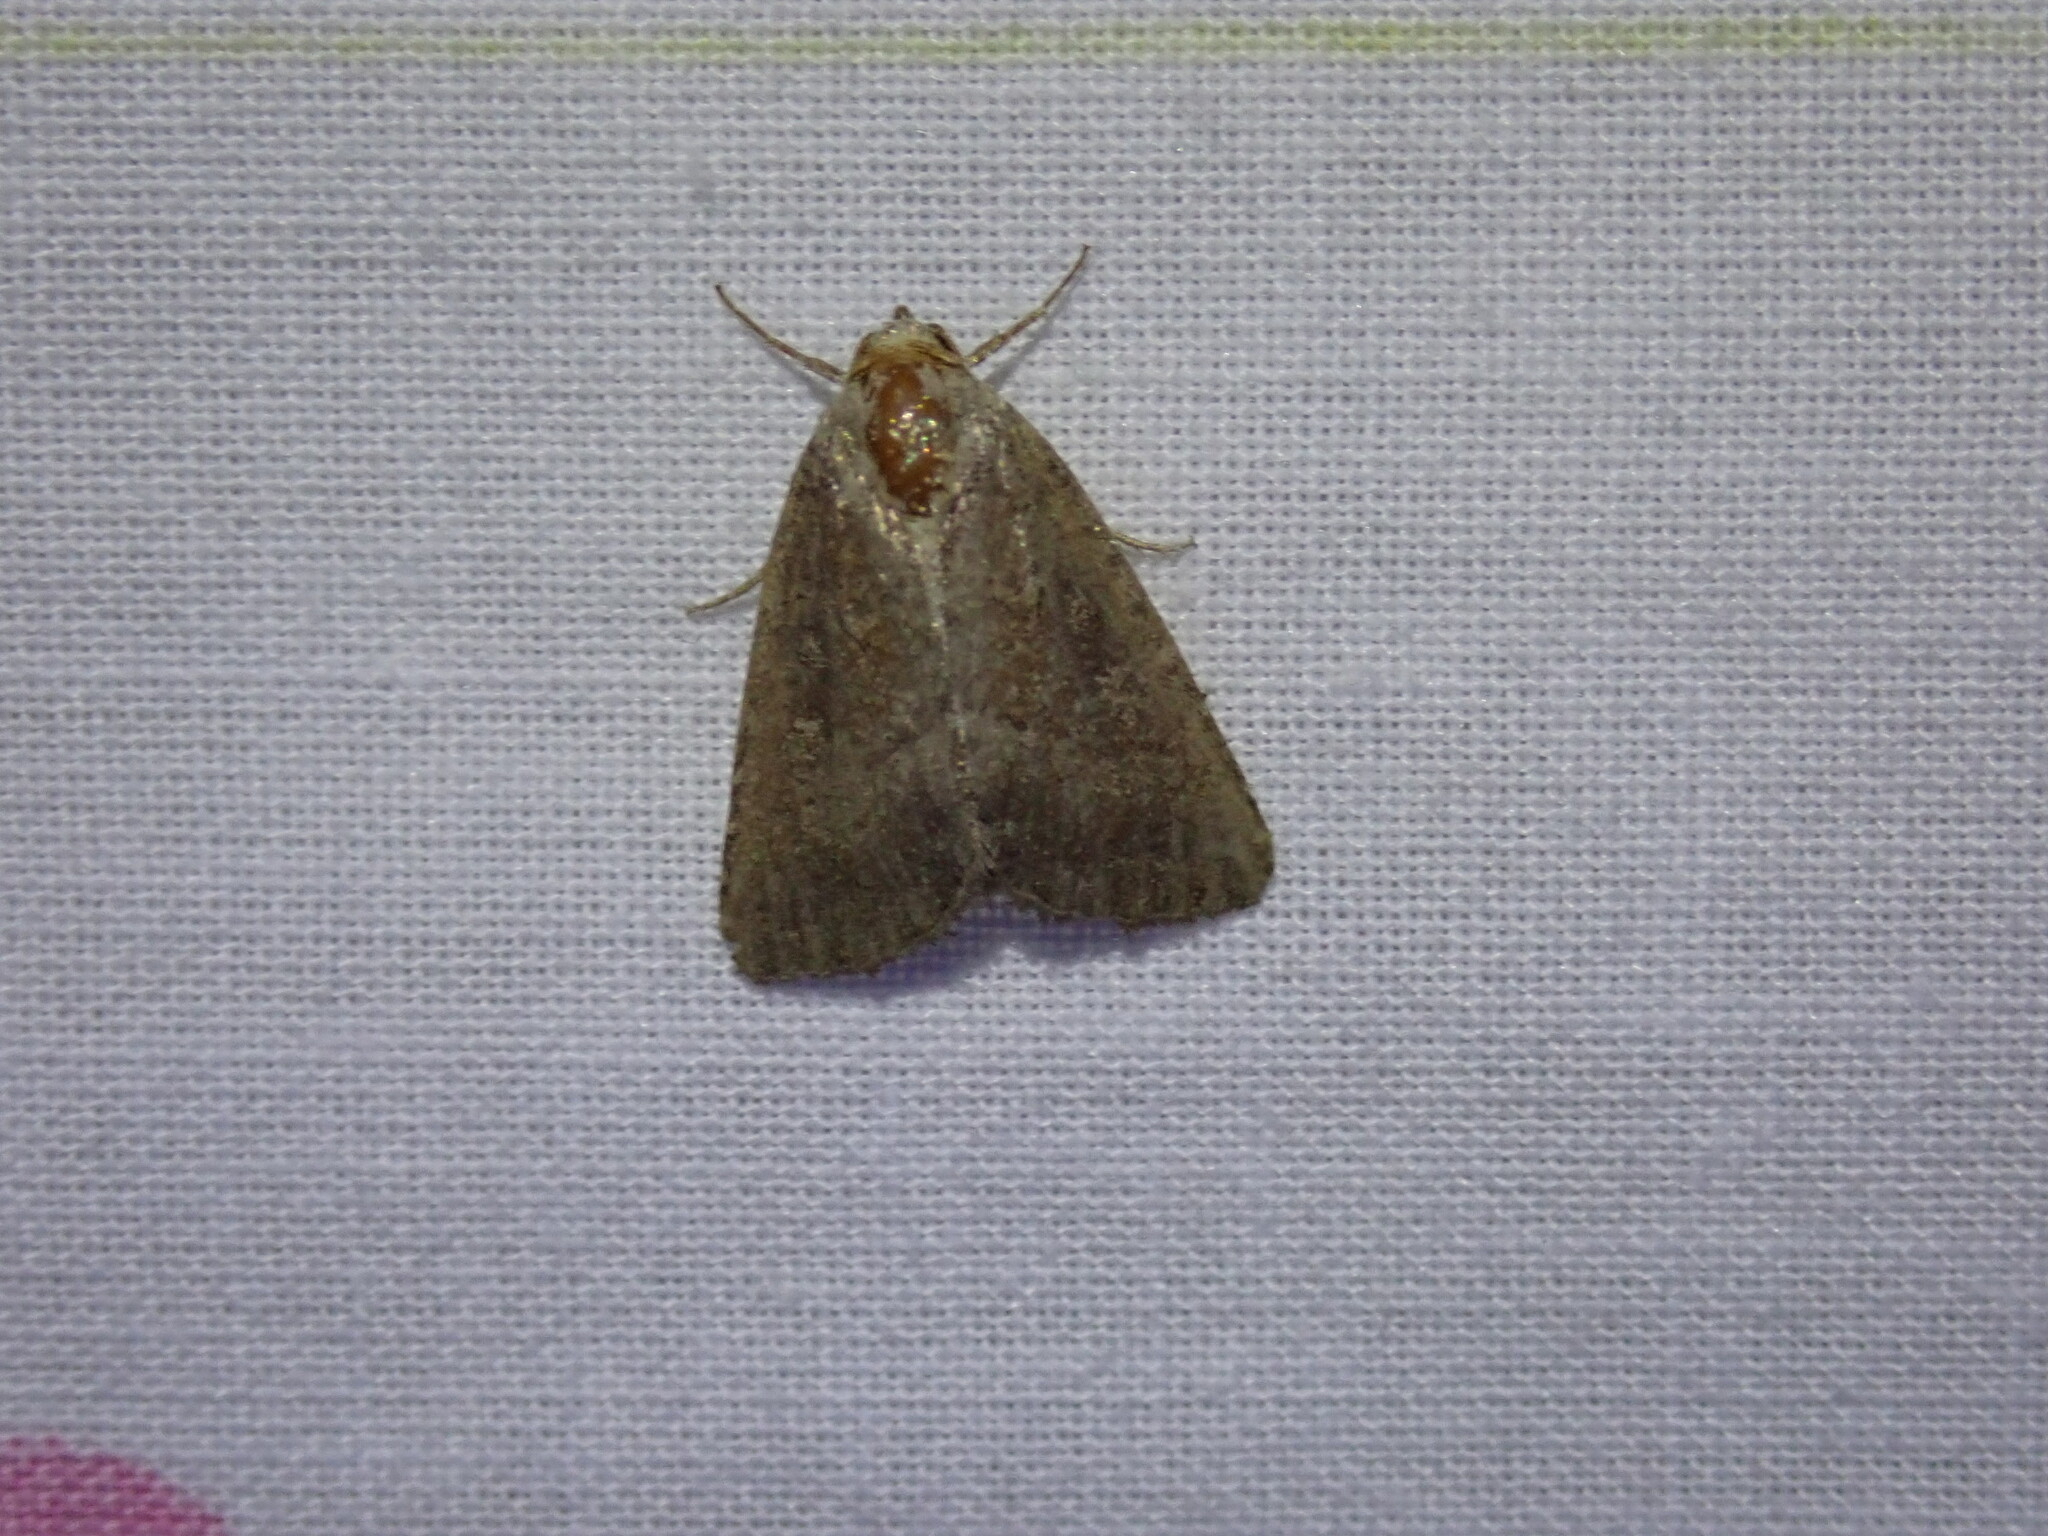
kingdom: Animalia
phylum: Arthropoda
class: Insecta
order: Lepidoptera
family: Noctuidae
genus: Condica
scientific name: Condica viscosa
